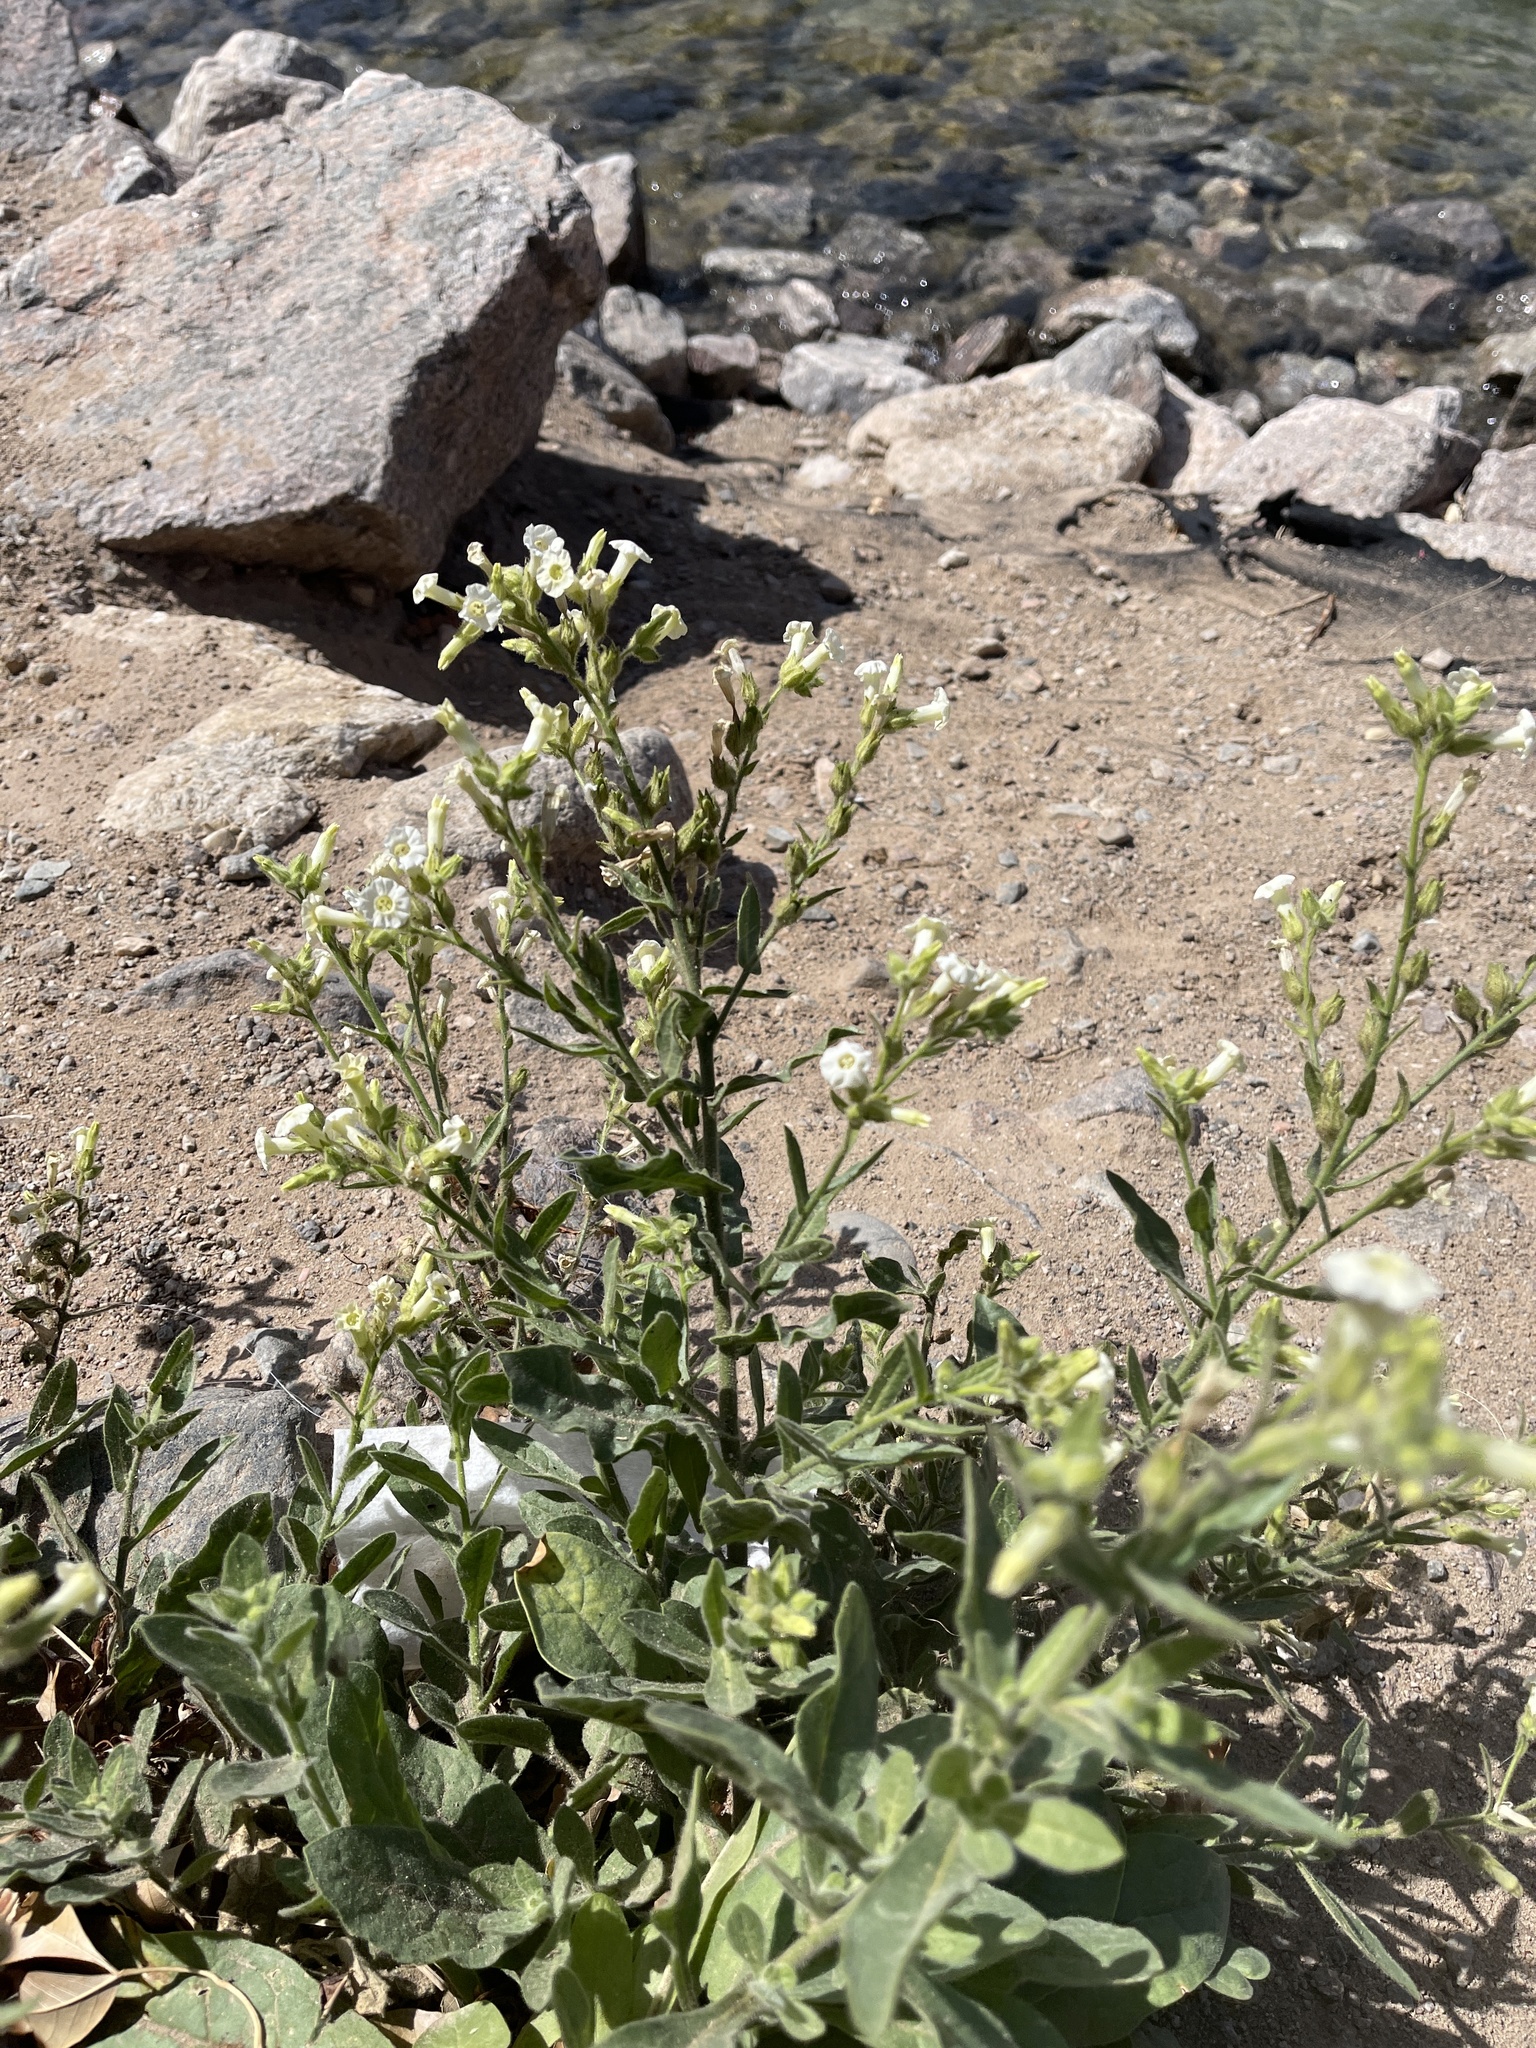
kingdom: Plantae
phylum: Tracheophyta
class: Magnoliopsida
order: Solanales
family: Solanaceae
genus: Nicotiana
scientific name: Nicotiana obtusifolia
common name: Desert tobacco
